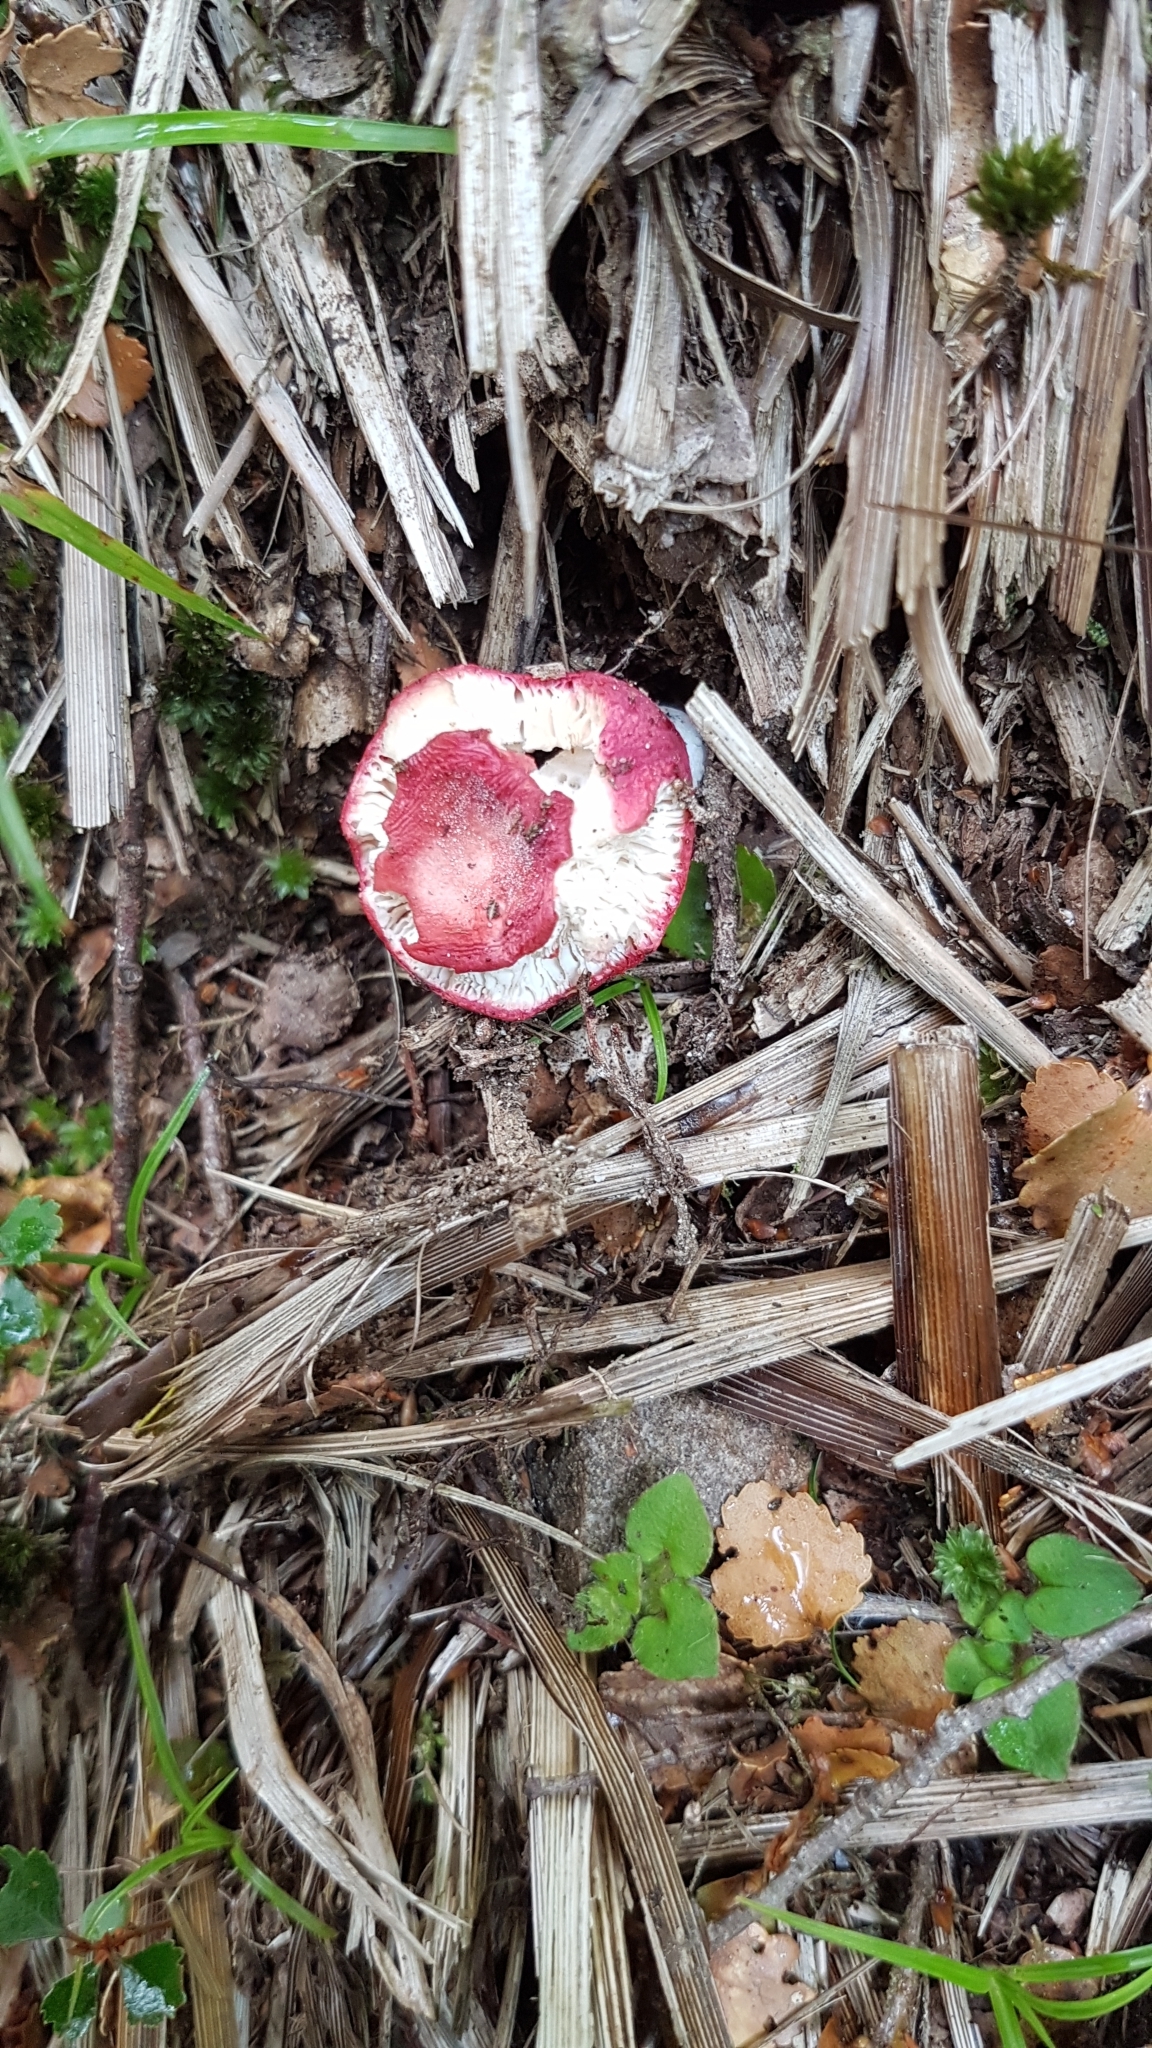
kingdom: Fungi
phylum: Basidiomycota
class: Agaricomycetes
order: Russulales
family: Russulaceae
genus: Russula
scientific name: Russula kermesina
